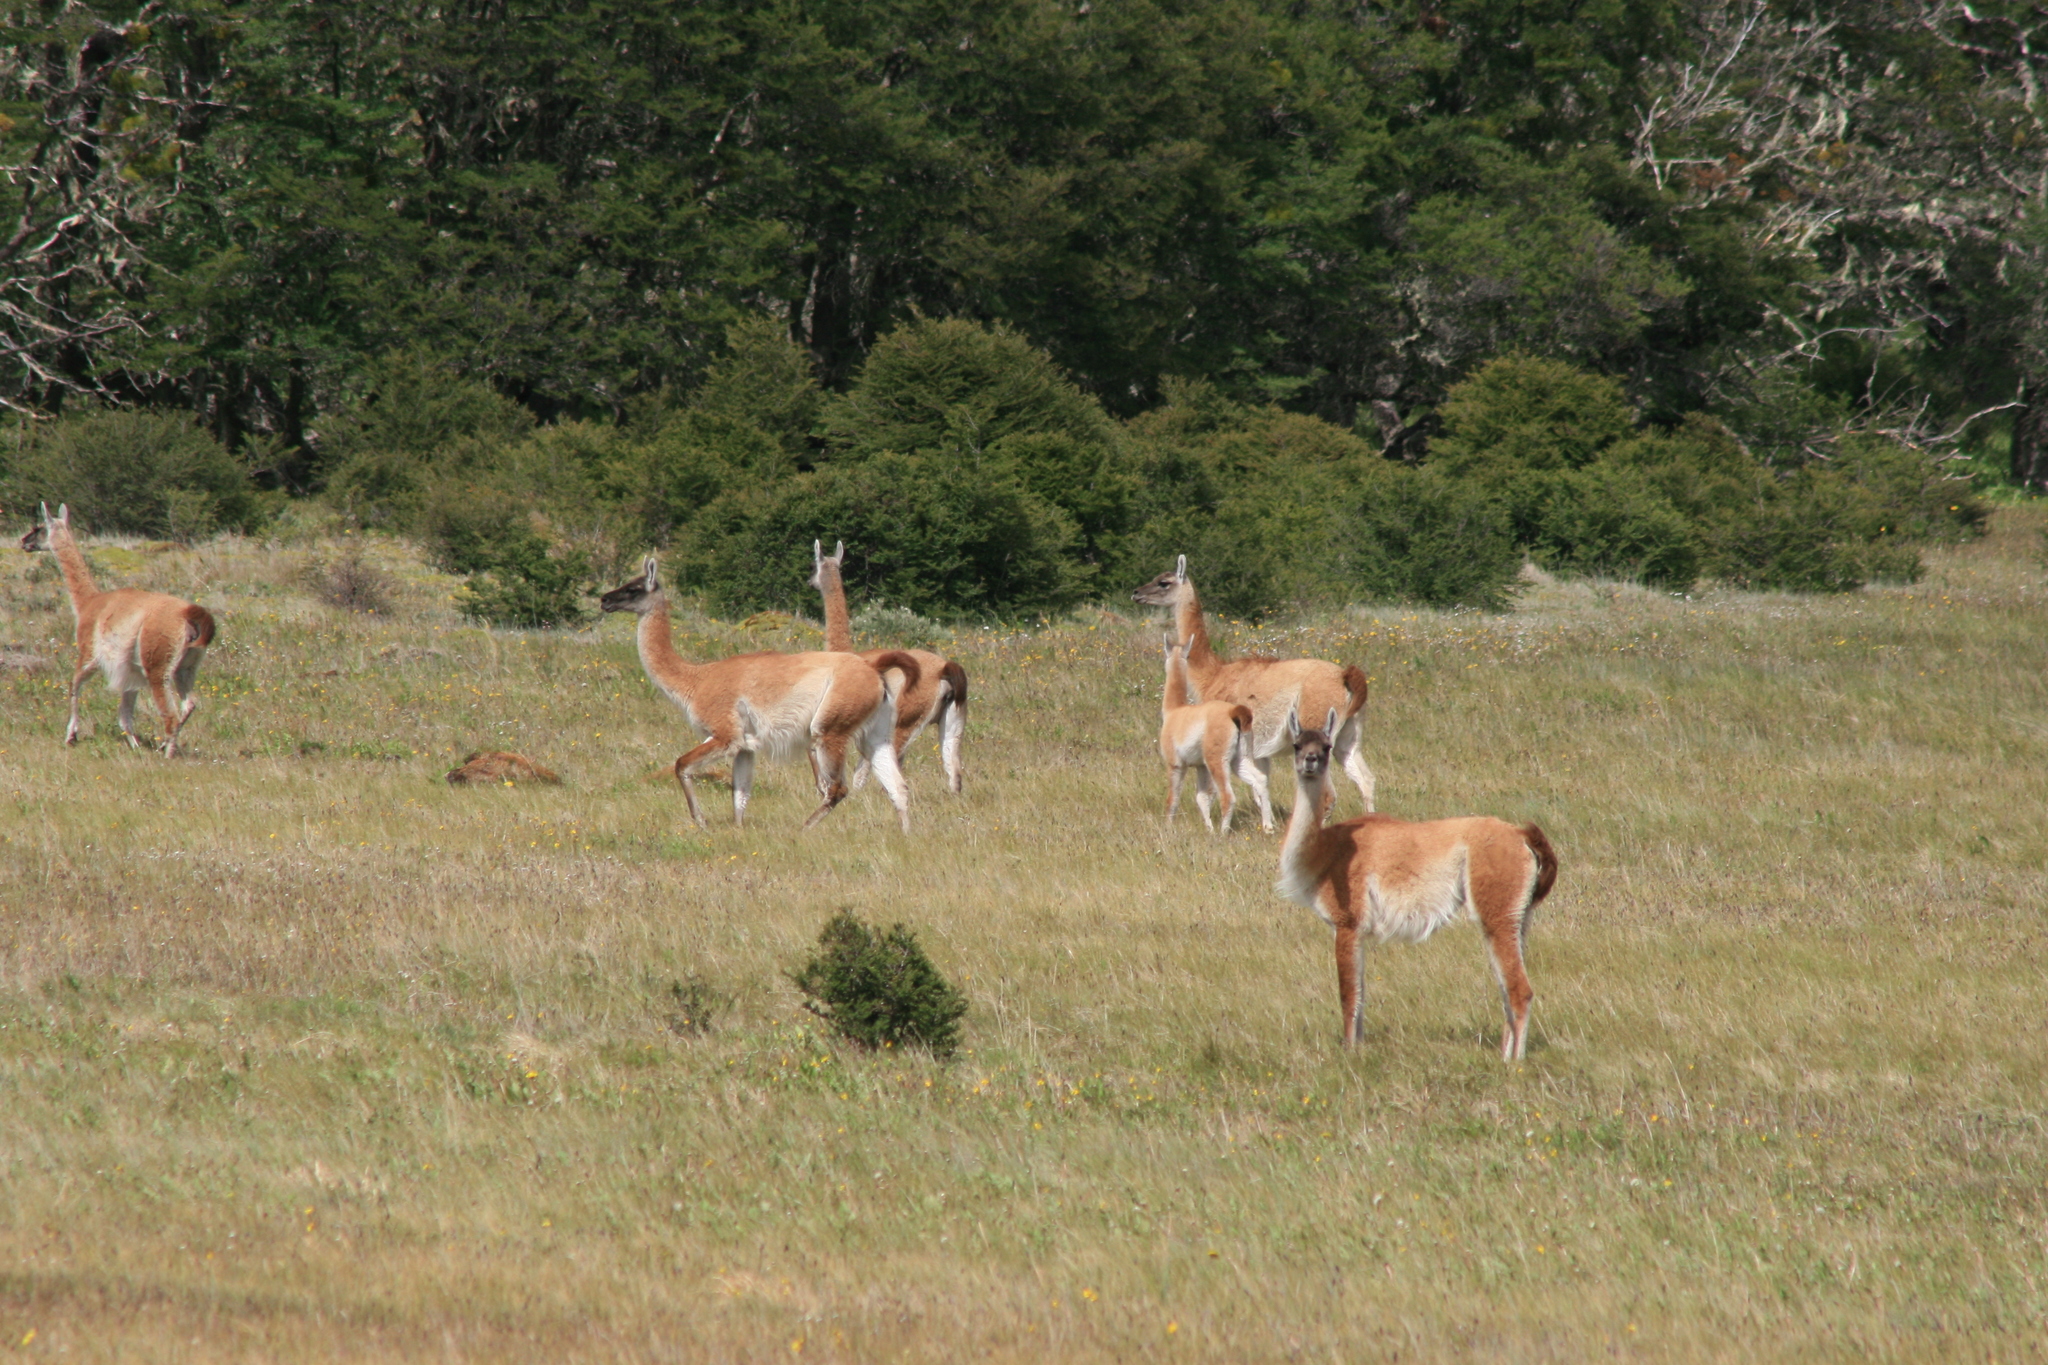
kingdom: Animalia
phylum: Chordata
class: Mammalia
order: Artiodactyla
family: Camelidae
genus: Lama
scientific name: Lama glama
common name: Llama
